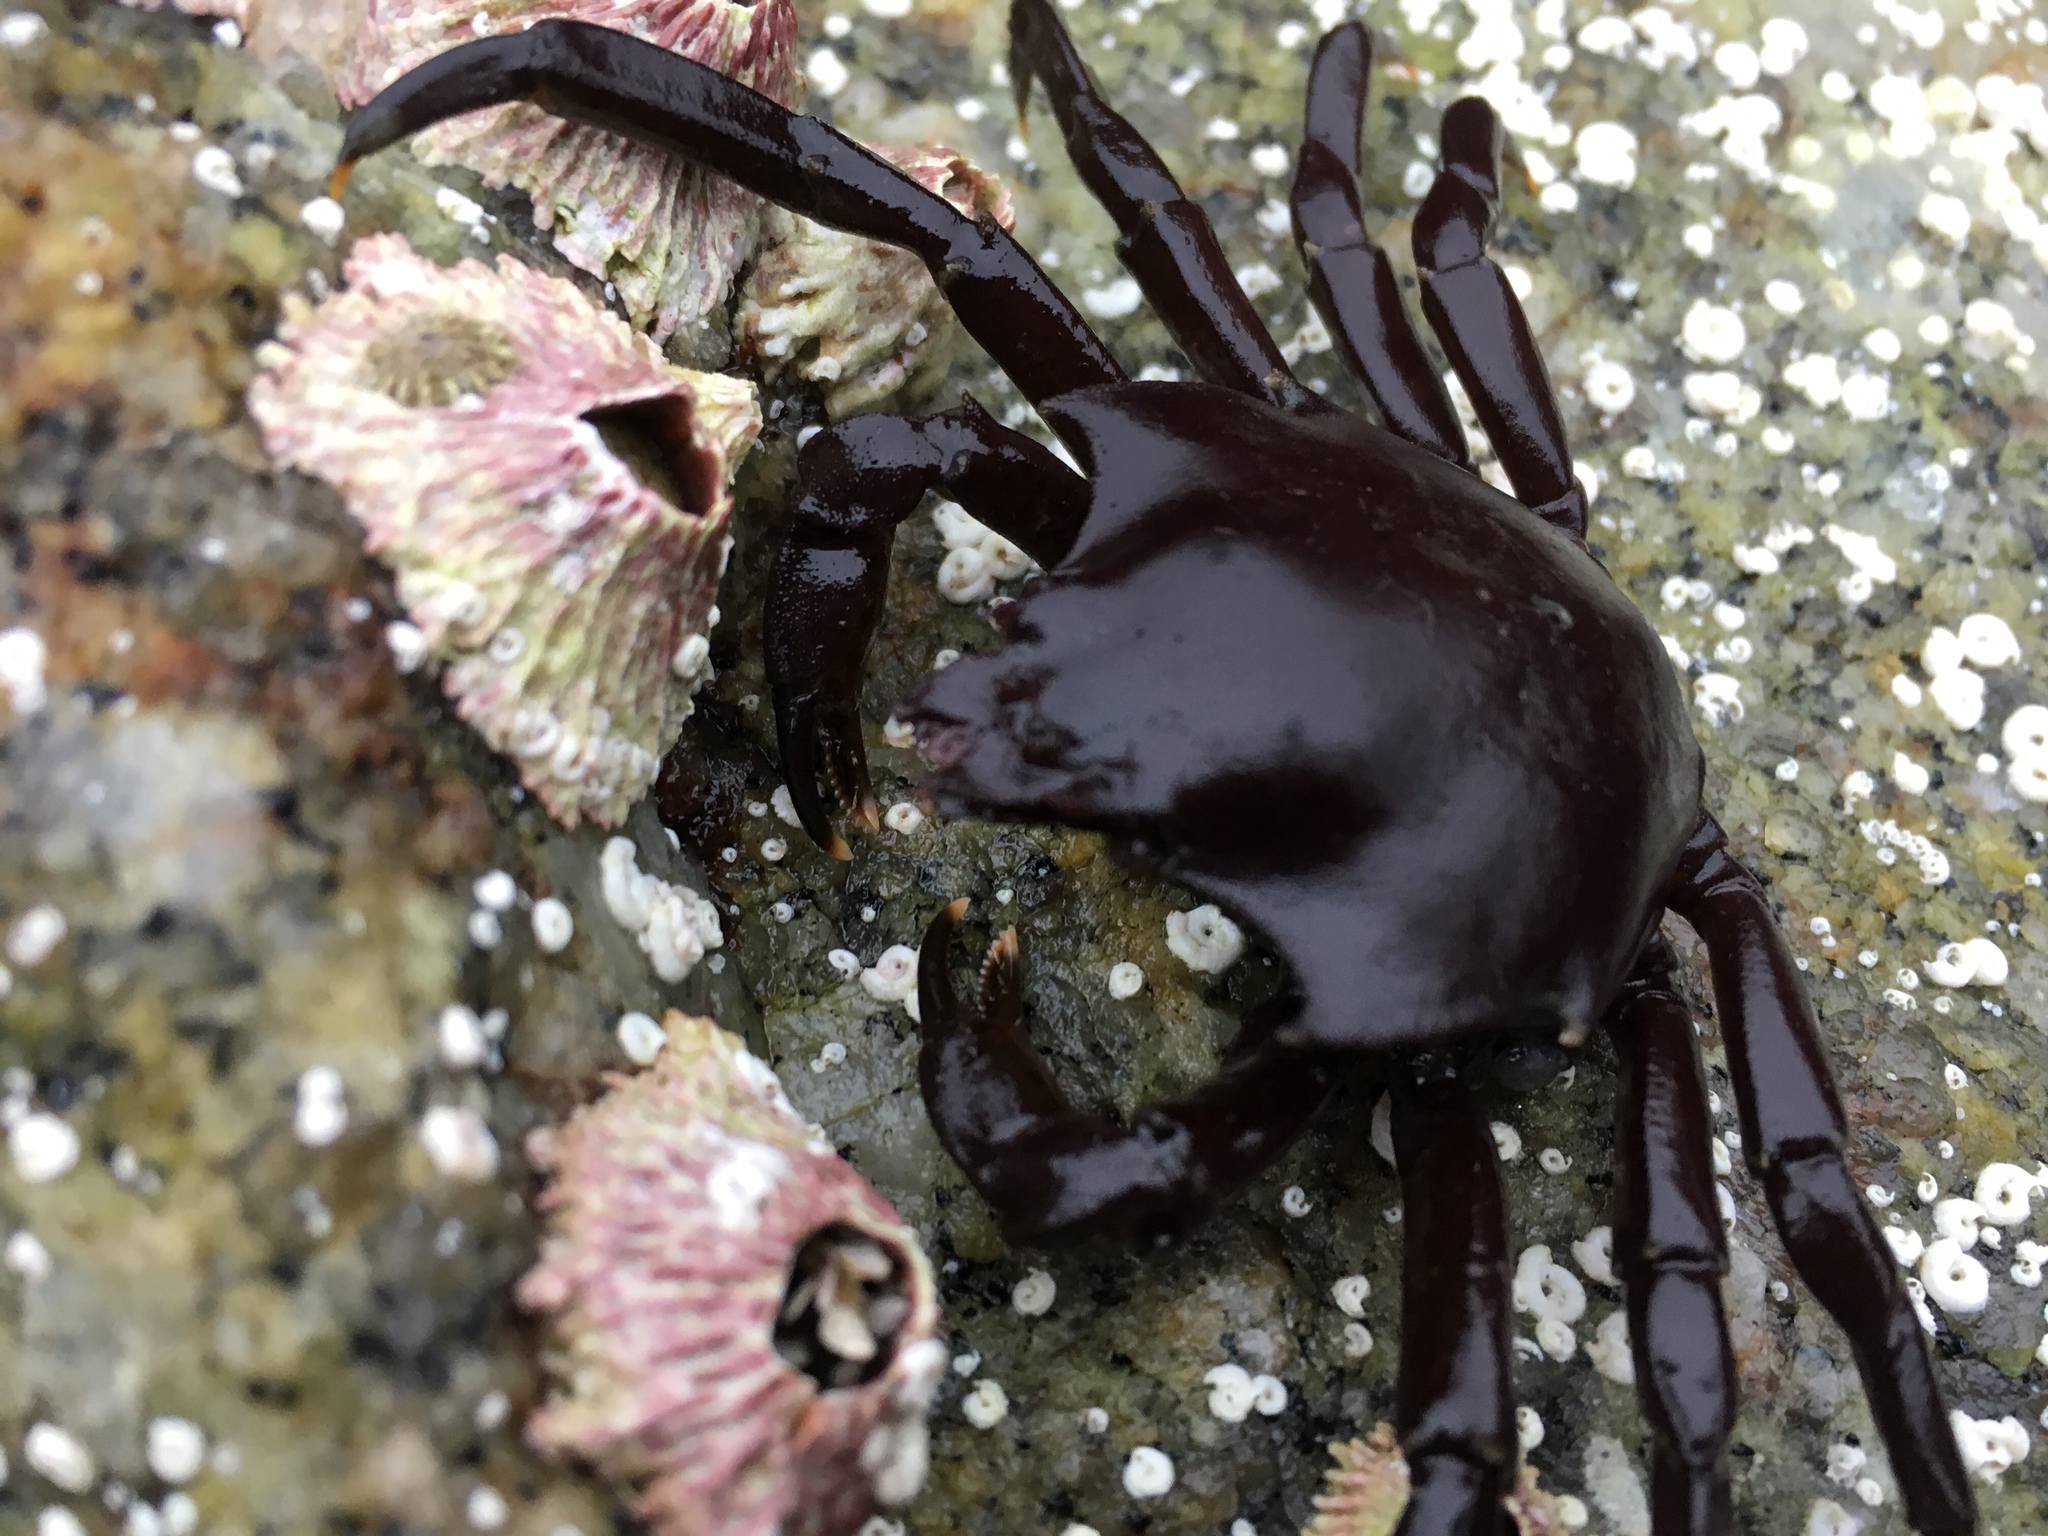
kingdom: Animalia
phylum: Arthropoda
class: Malacostraca
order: Decapoda
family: Epialtidae
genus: Pugettia
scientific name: Pugettia producta
